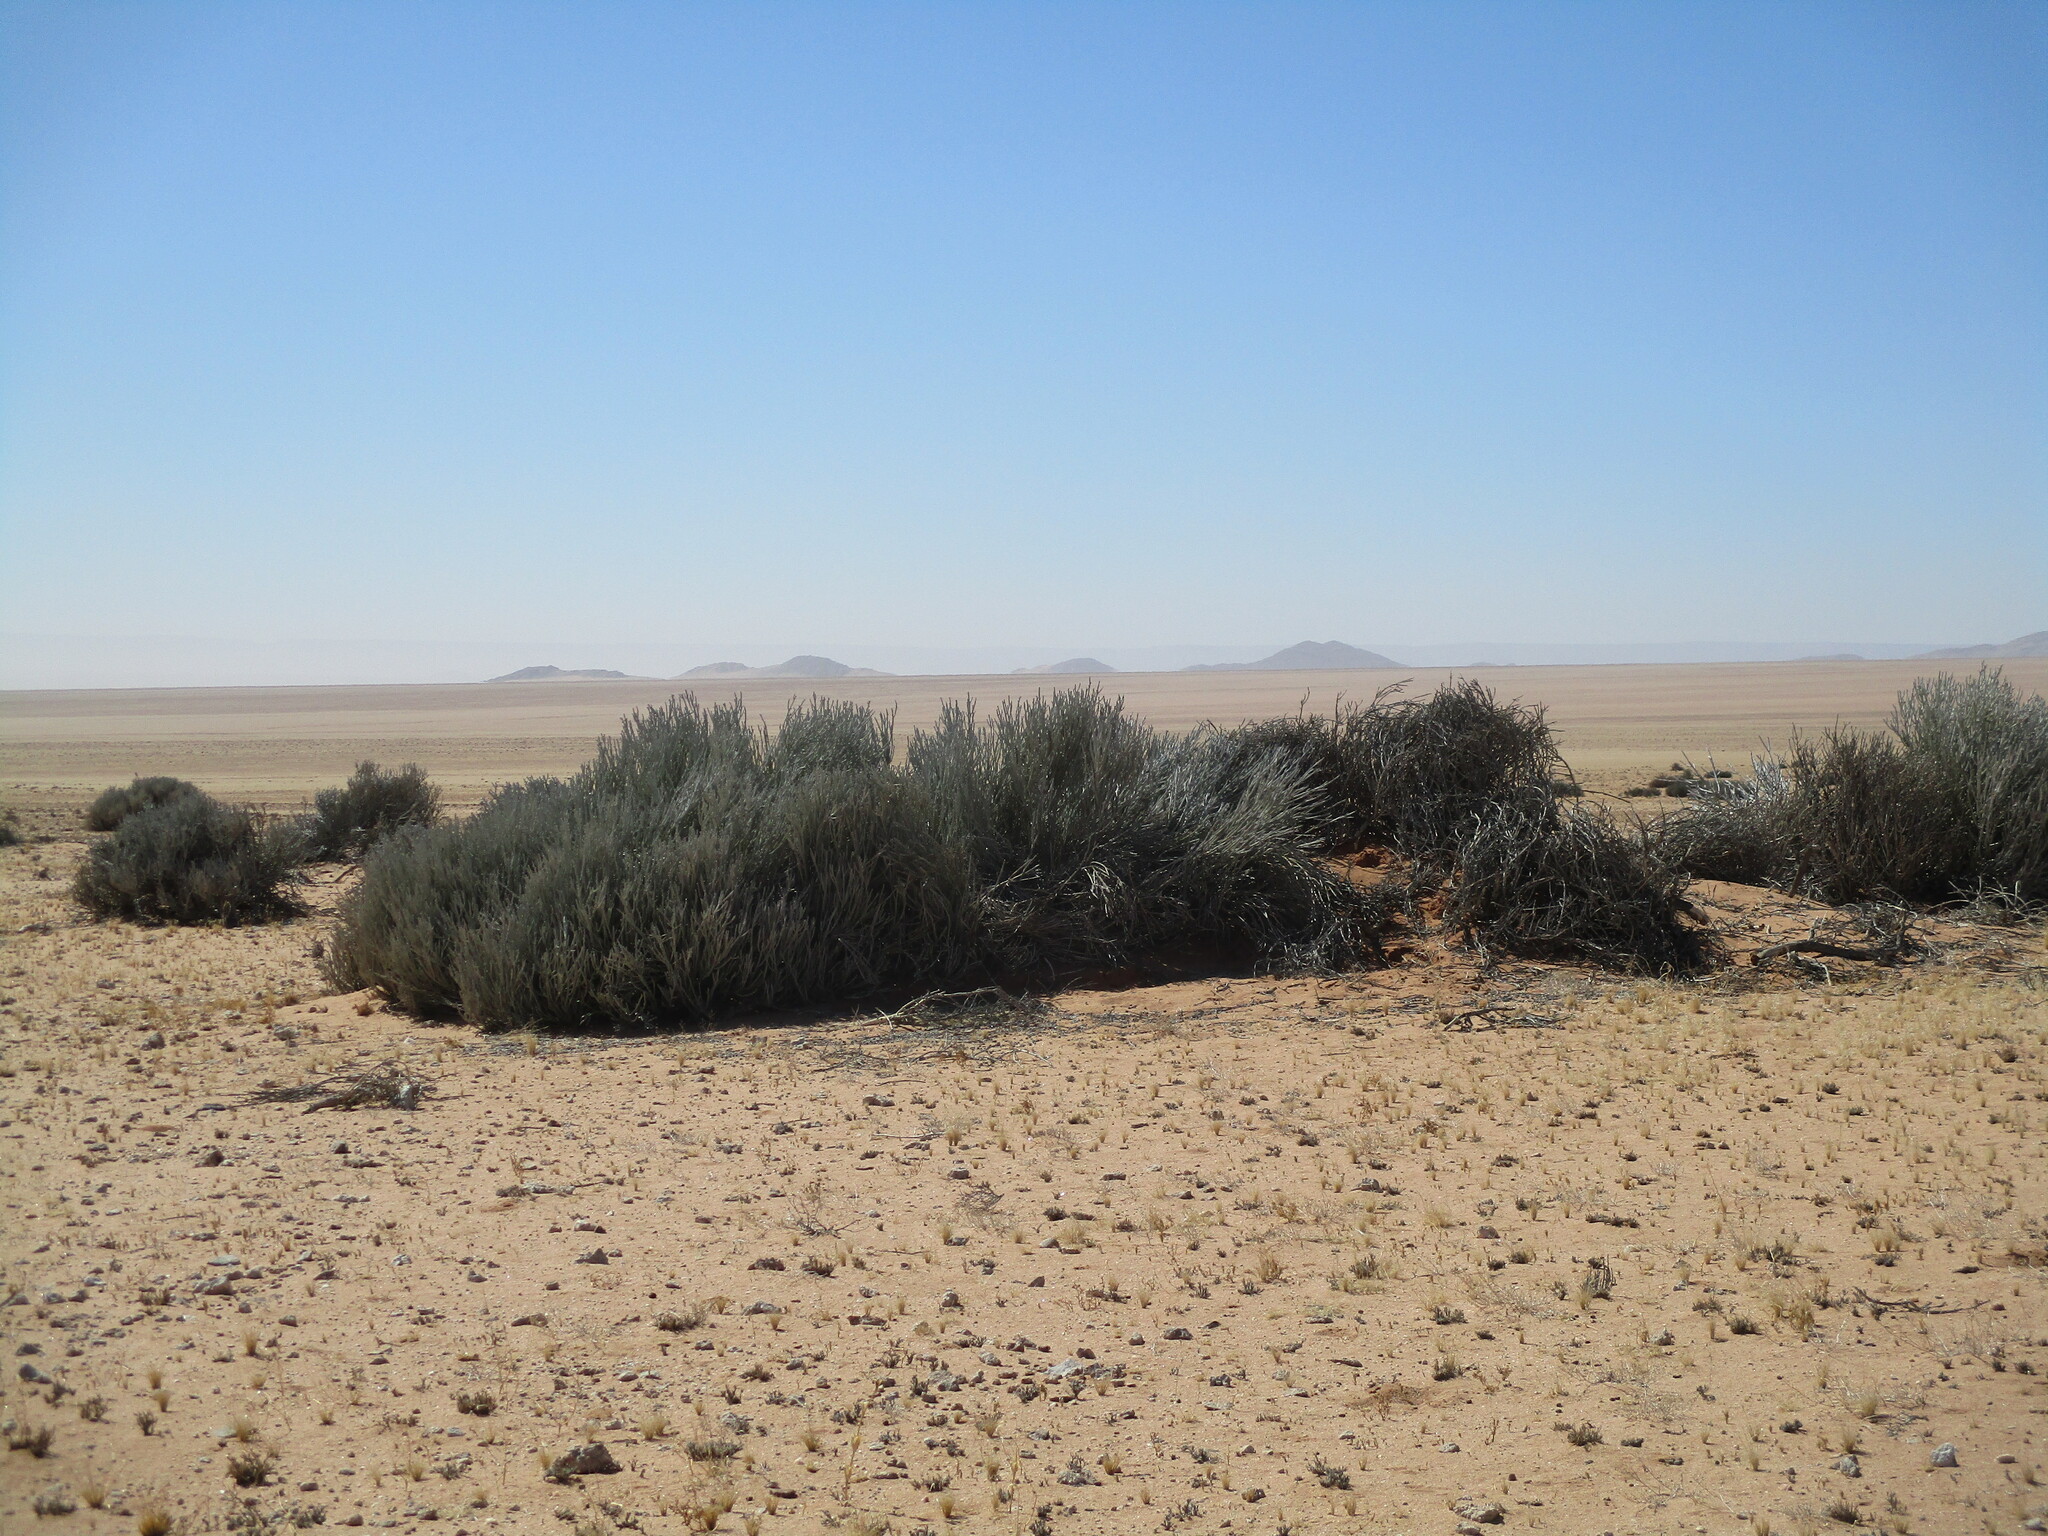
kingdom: Plantae
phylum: Tracheophyta
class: Magnoliopsida
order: Malpighiales
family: Euphorbiaceae
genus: Euphorbia
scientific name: Euphorbia gummifera
